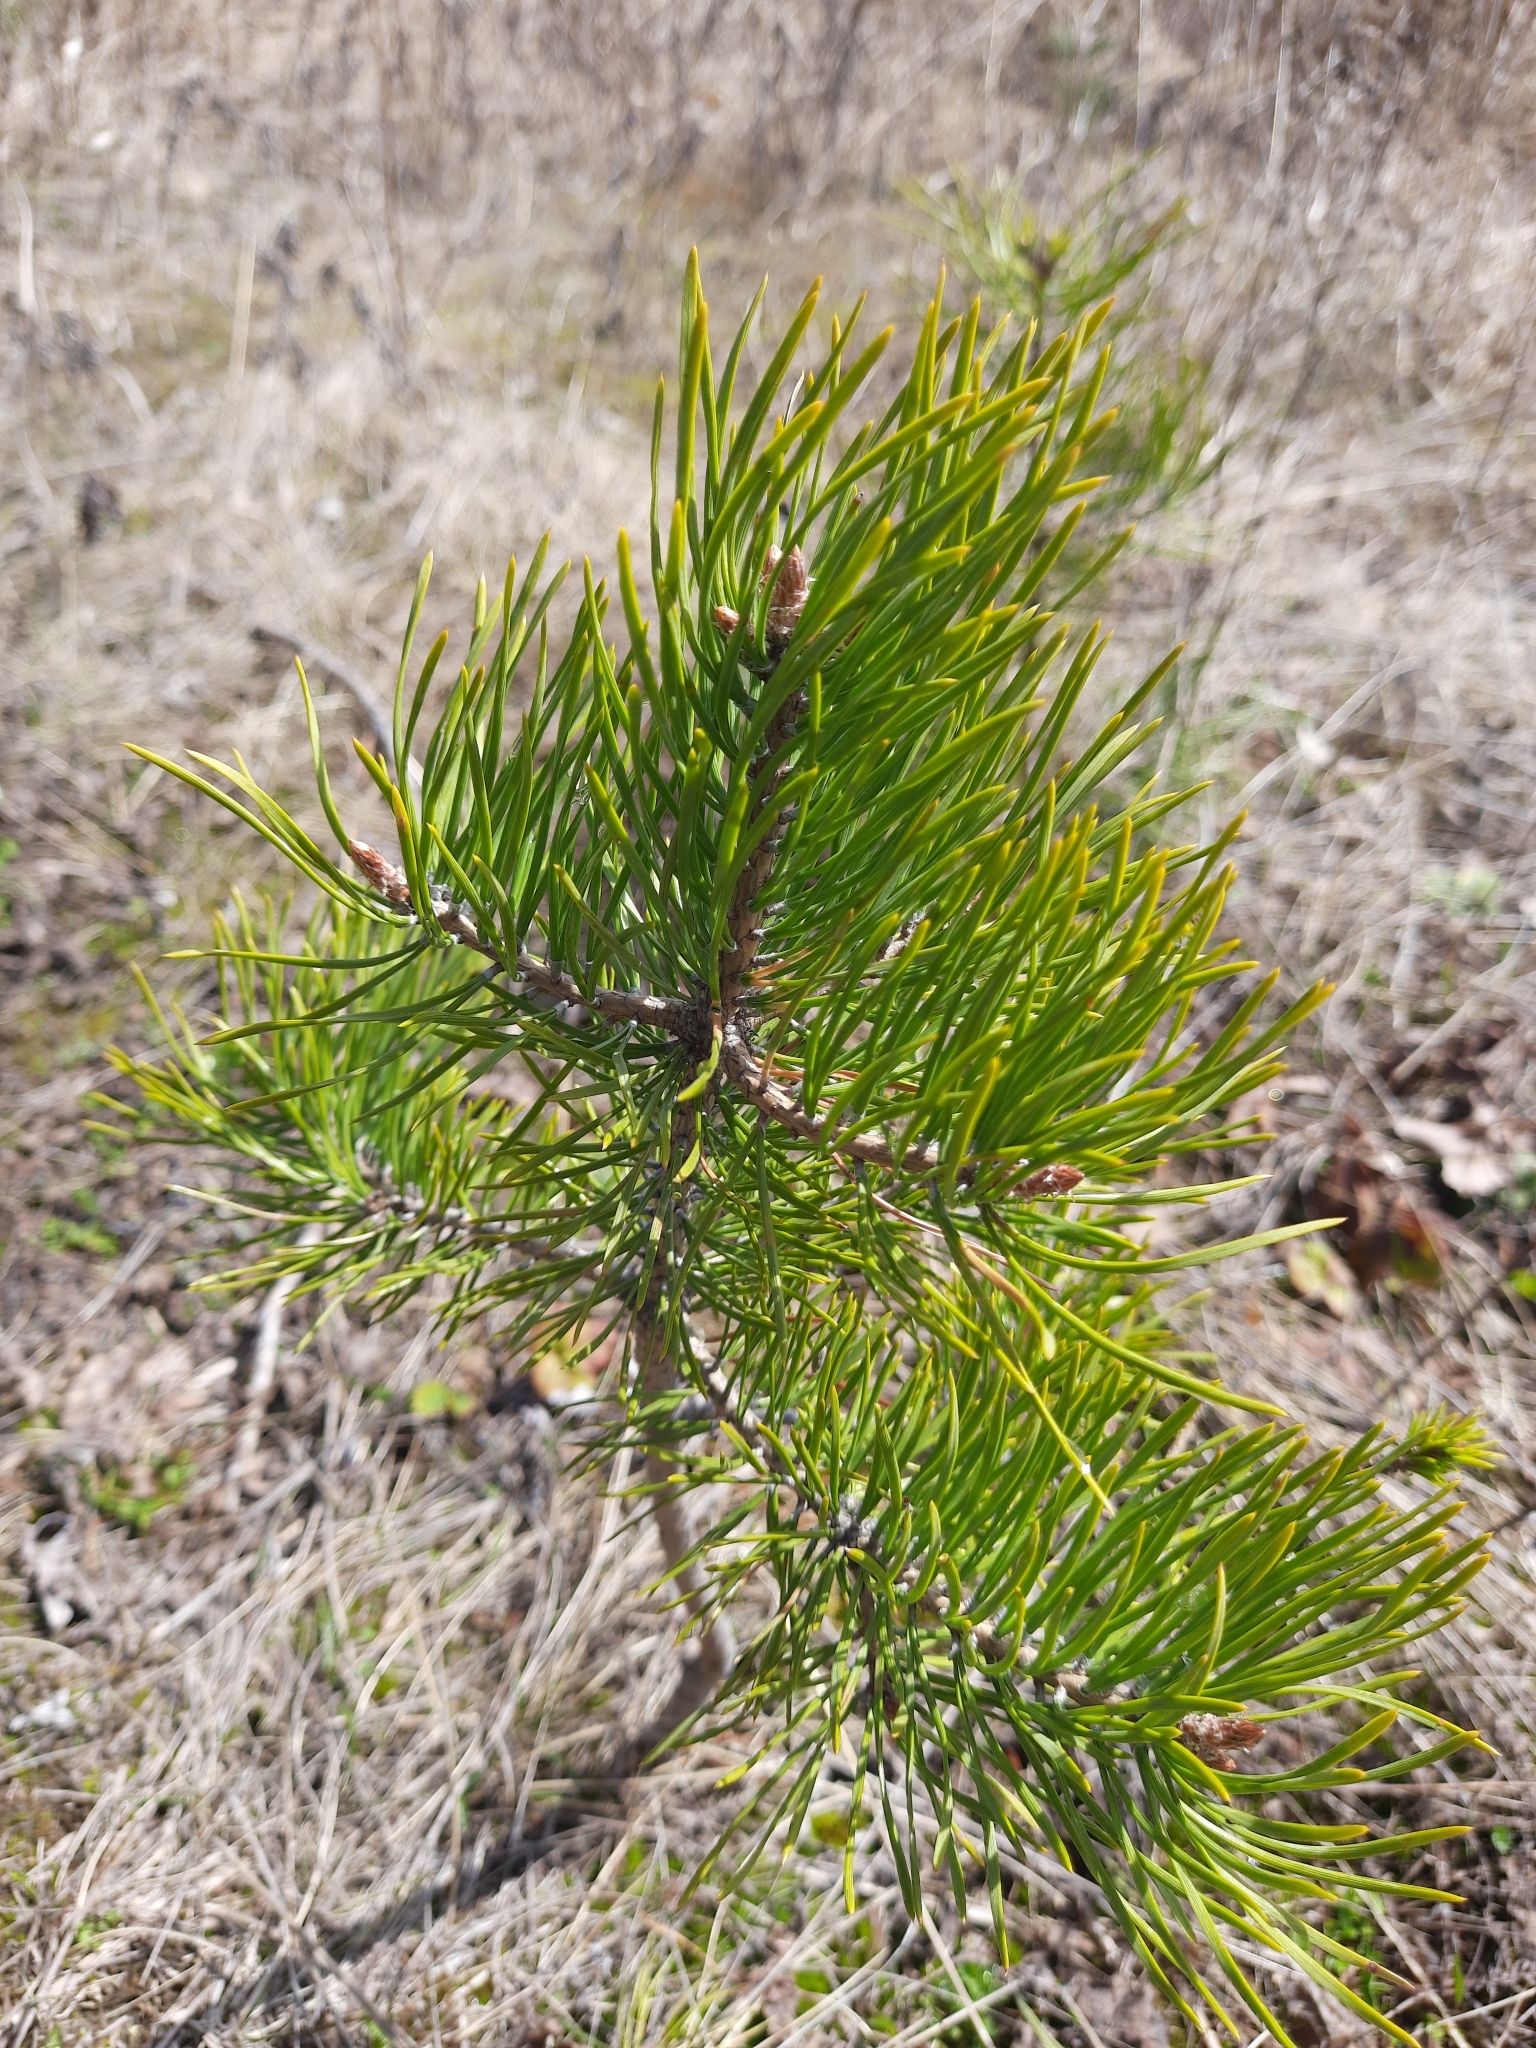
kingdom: Plantae
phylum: Tracheophyta
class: Pinopsida
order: Pinales
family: Pinaceae
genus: Pinus
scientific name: Pinus sylvestris
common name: Scots pine
